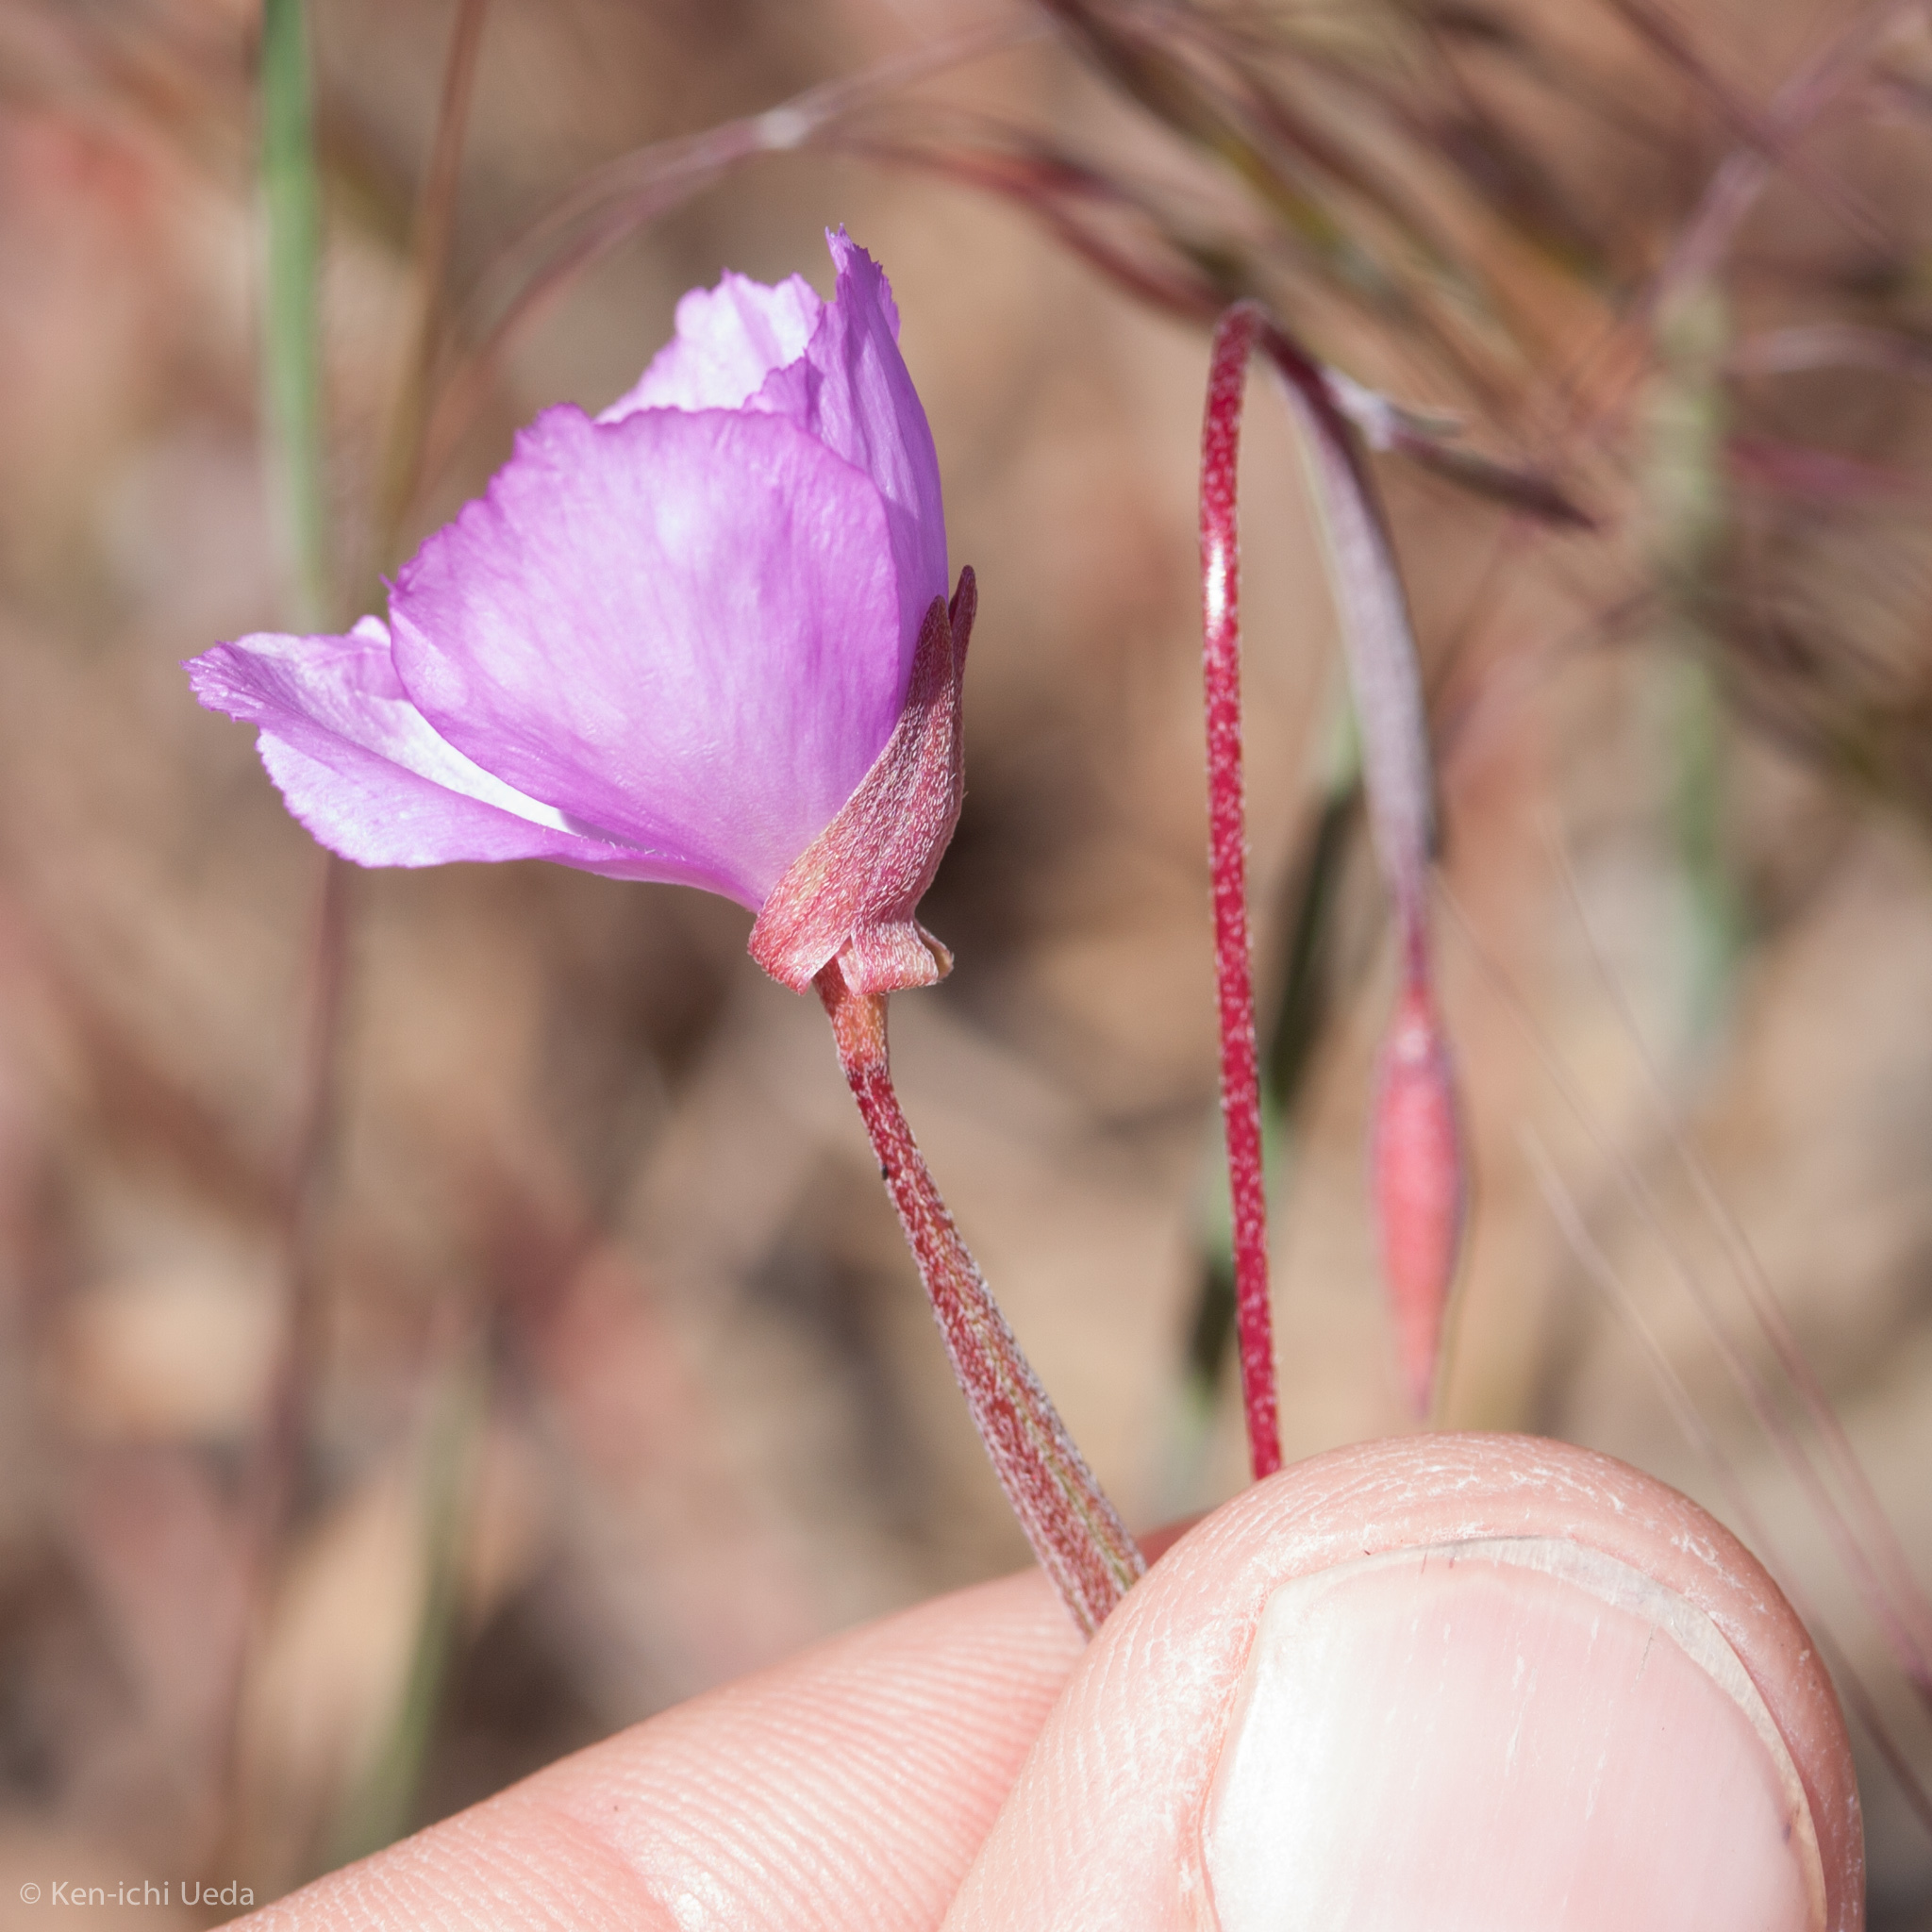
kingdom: Plantae
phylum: Tracheophyta
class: Magnoliopsida
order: Myrtales
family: Onagraceae
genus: Clarkia
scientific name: Clarkia gracilis
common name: Graceful clarkia
